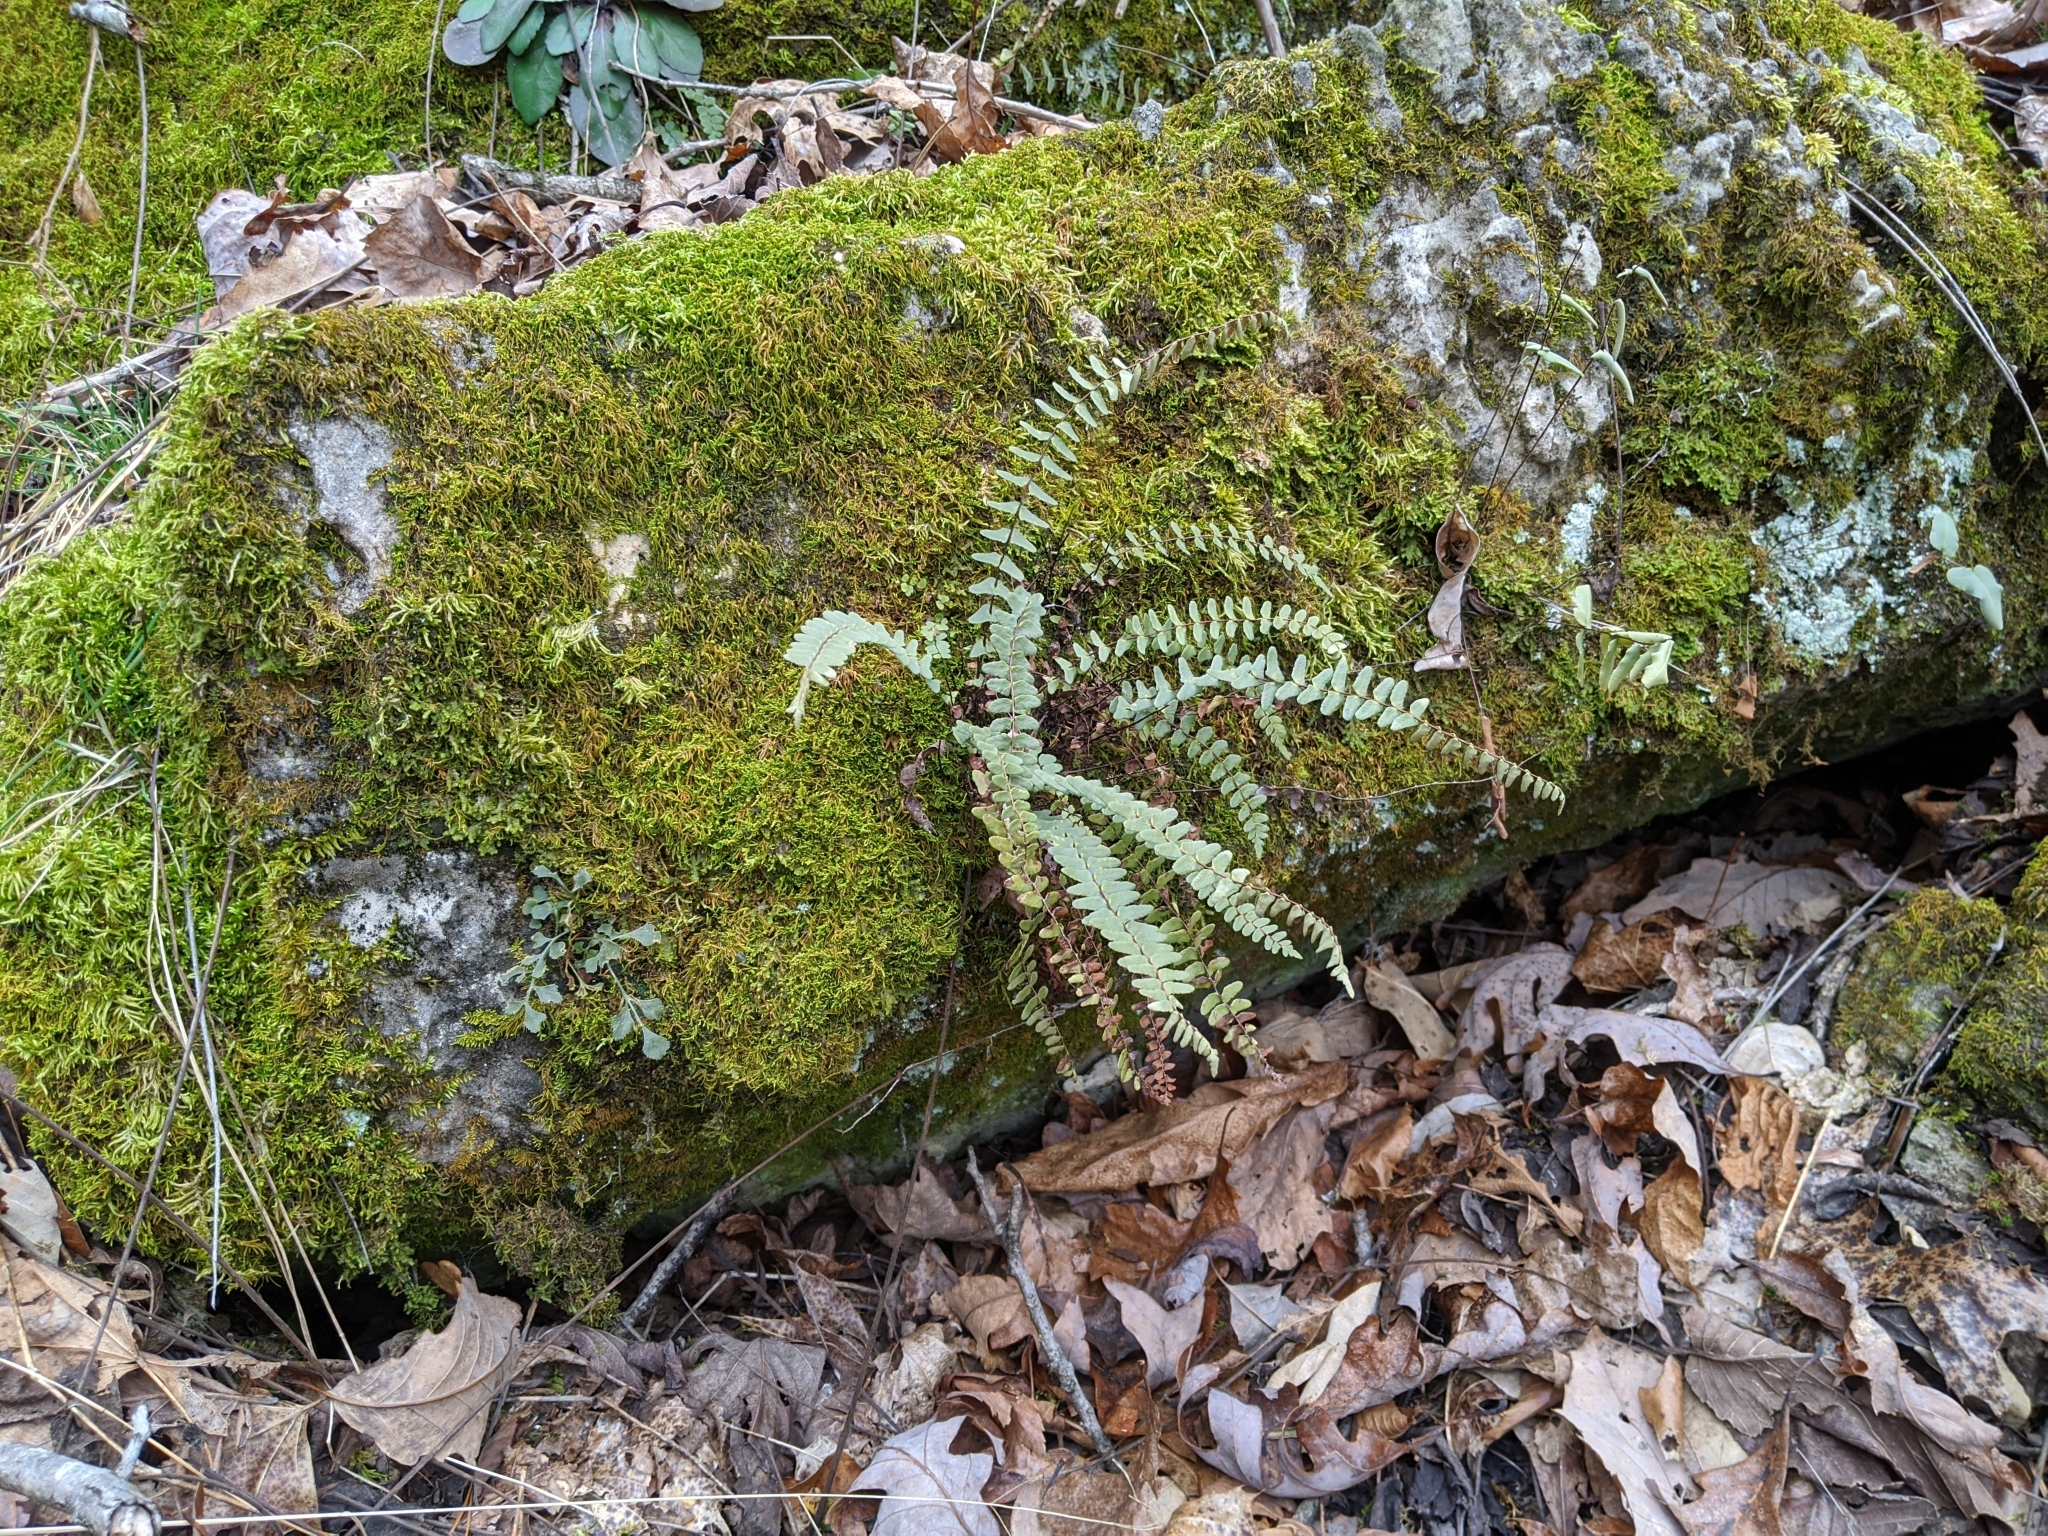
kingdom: Plantae
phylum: Tracheophyta
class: Polypodiopsida
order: Polypodiales
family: Aspleniaceae
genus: Asplenium
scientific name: Asplenium resiliens
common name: Blackstem spleenwort
